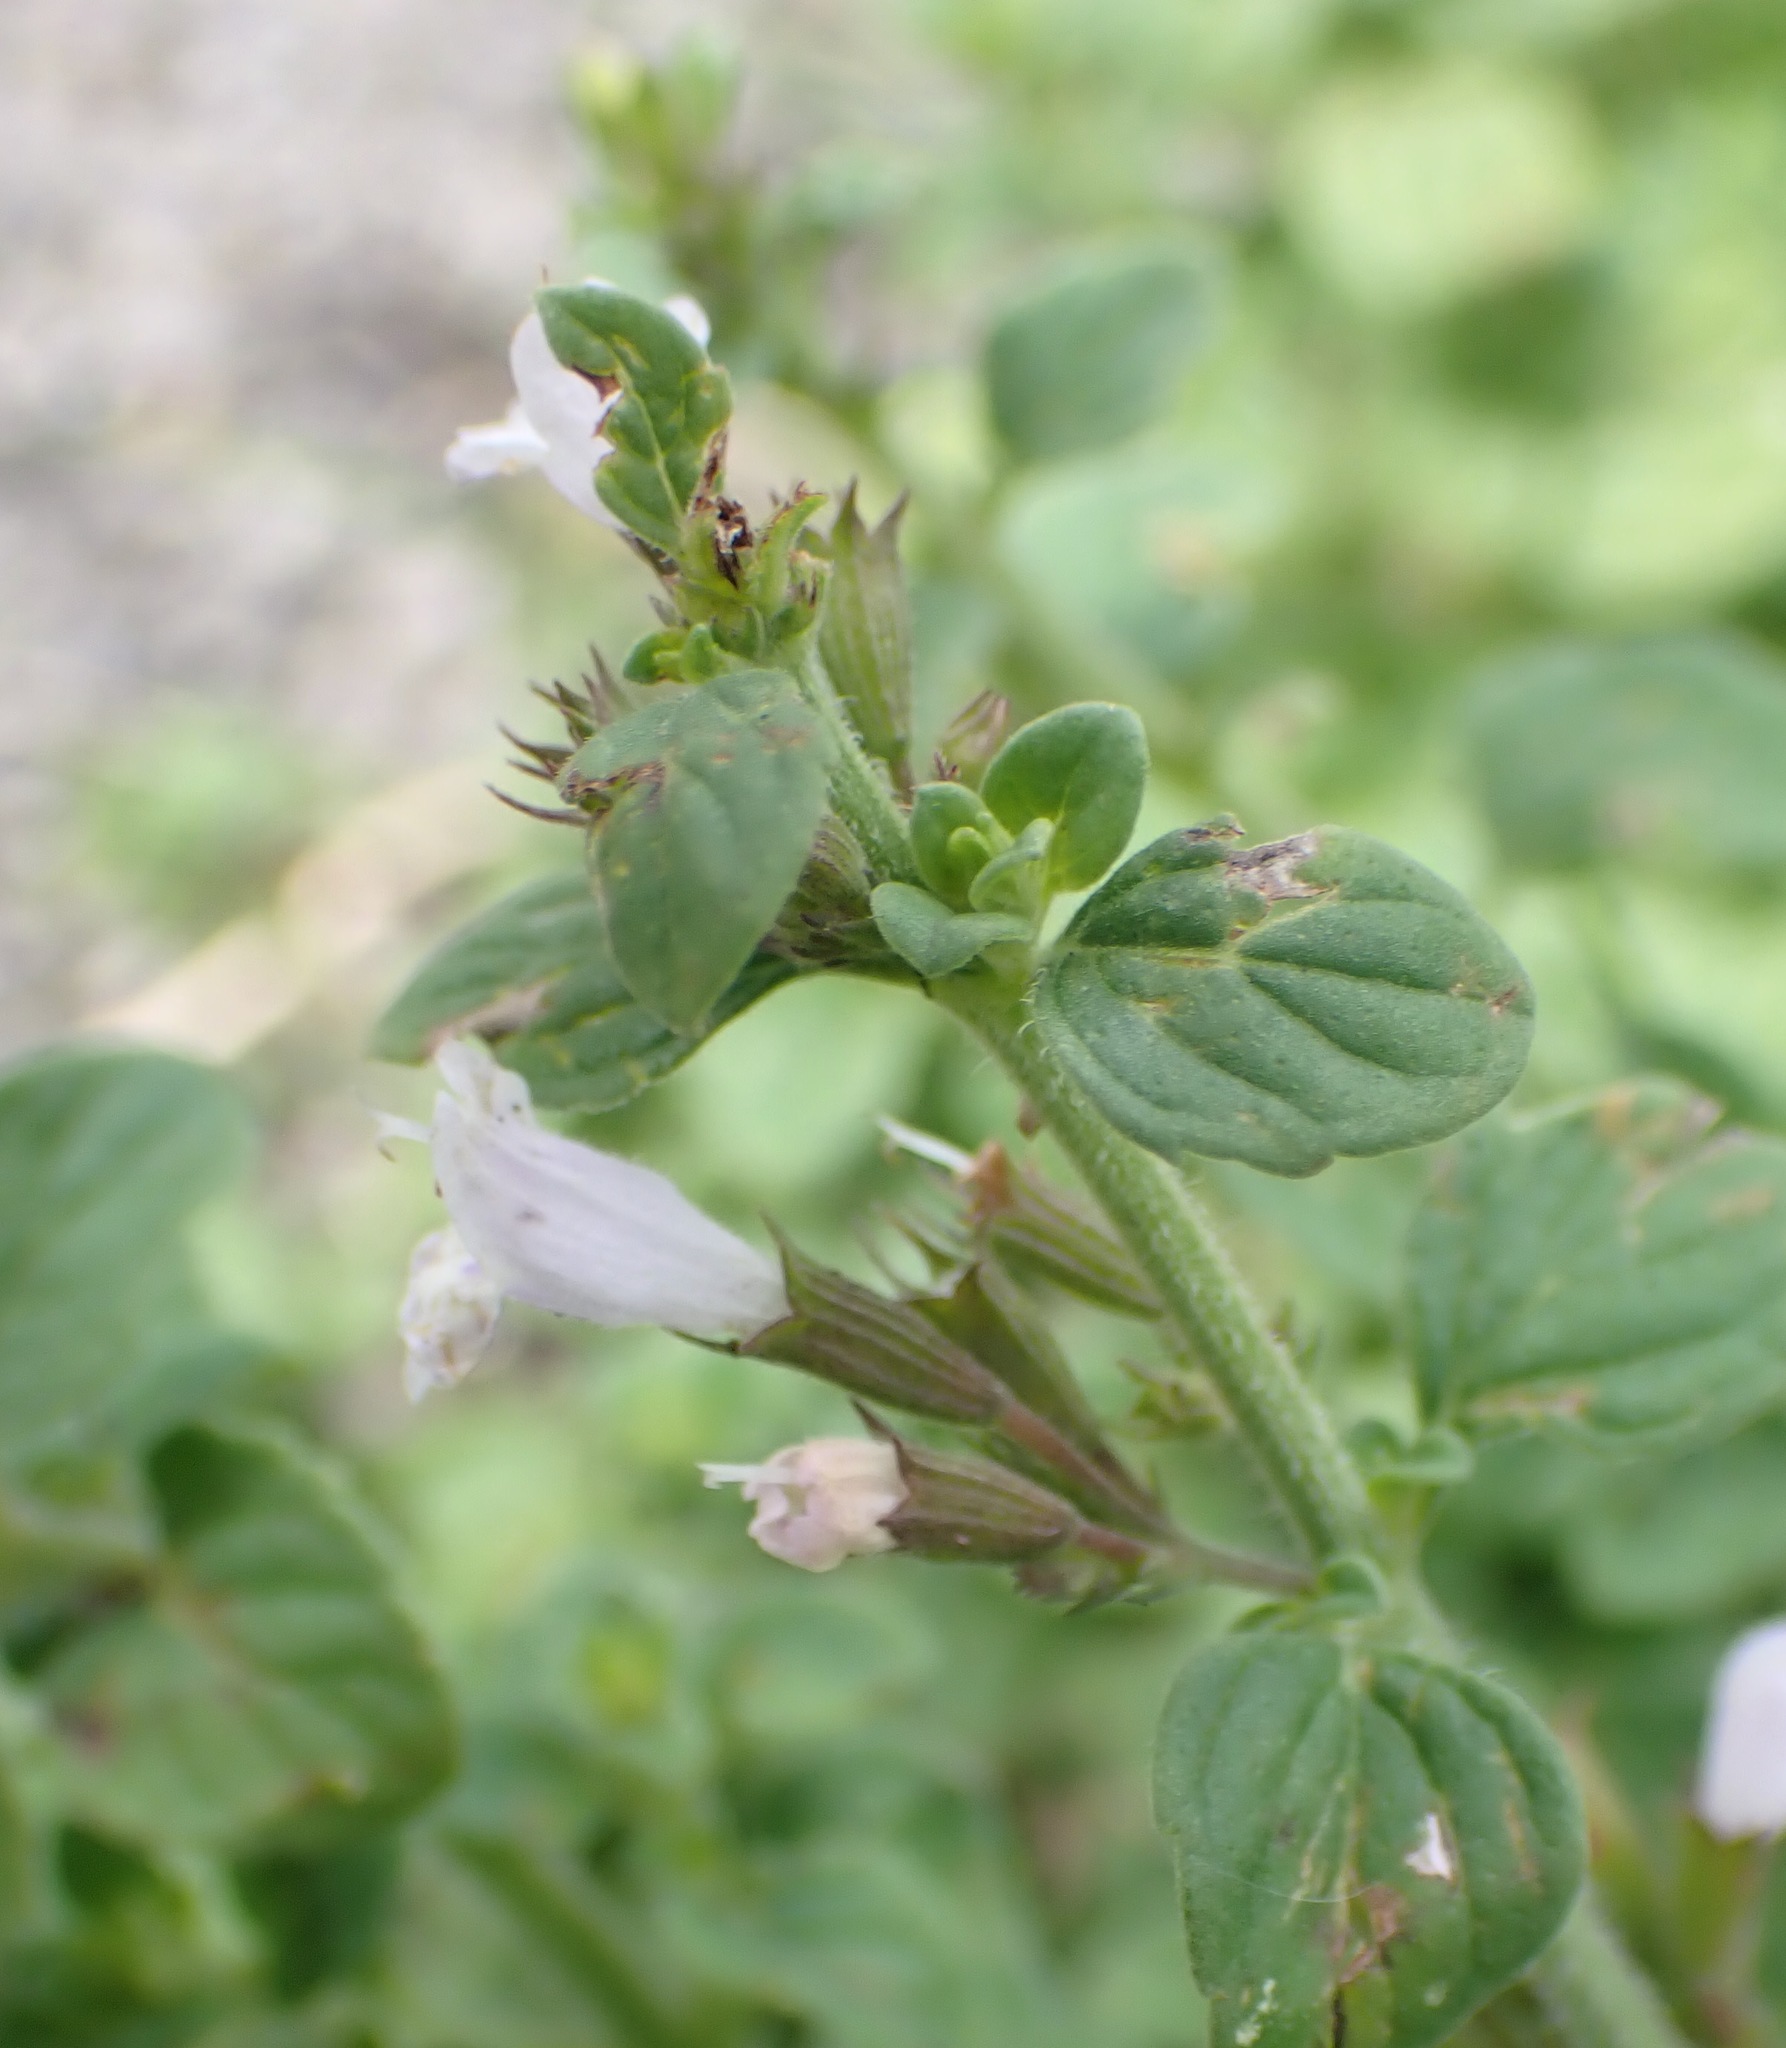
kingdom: Plantae
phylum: Tracheophyta
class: Magnoliopsida
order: Lamiales
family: Lamiaceae
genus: Clinopodium
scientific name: Clinopodium menthifolium
